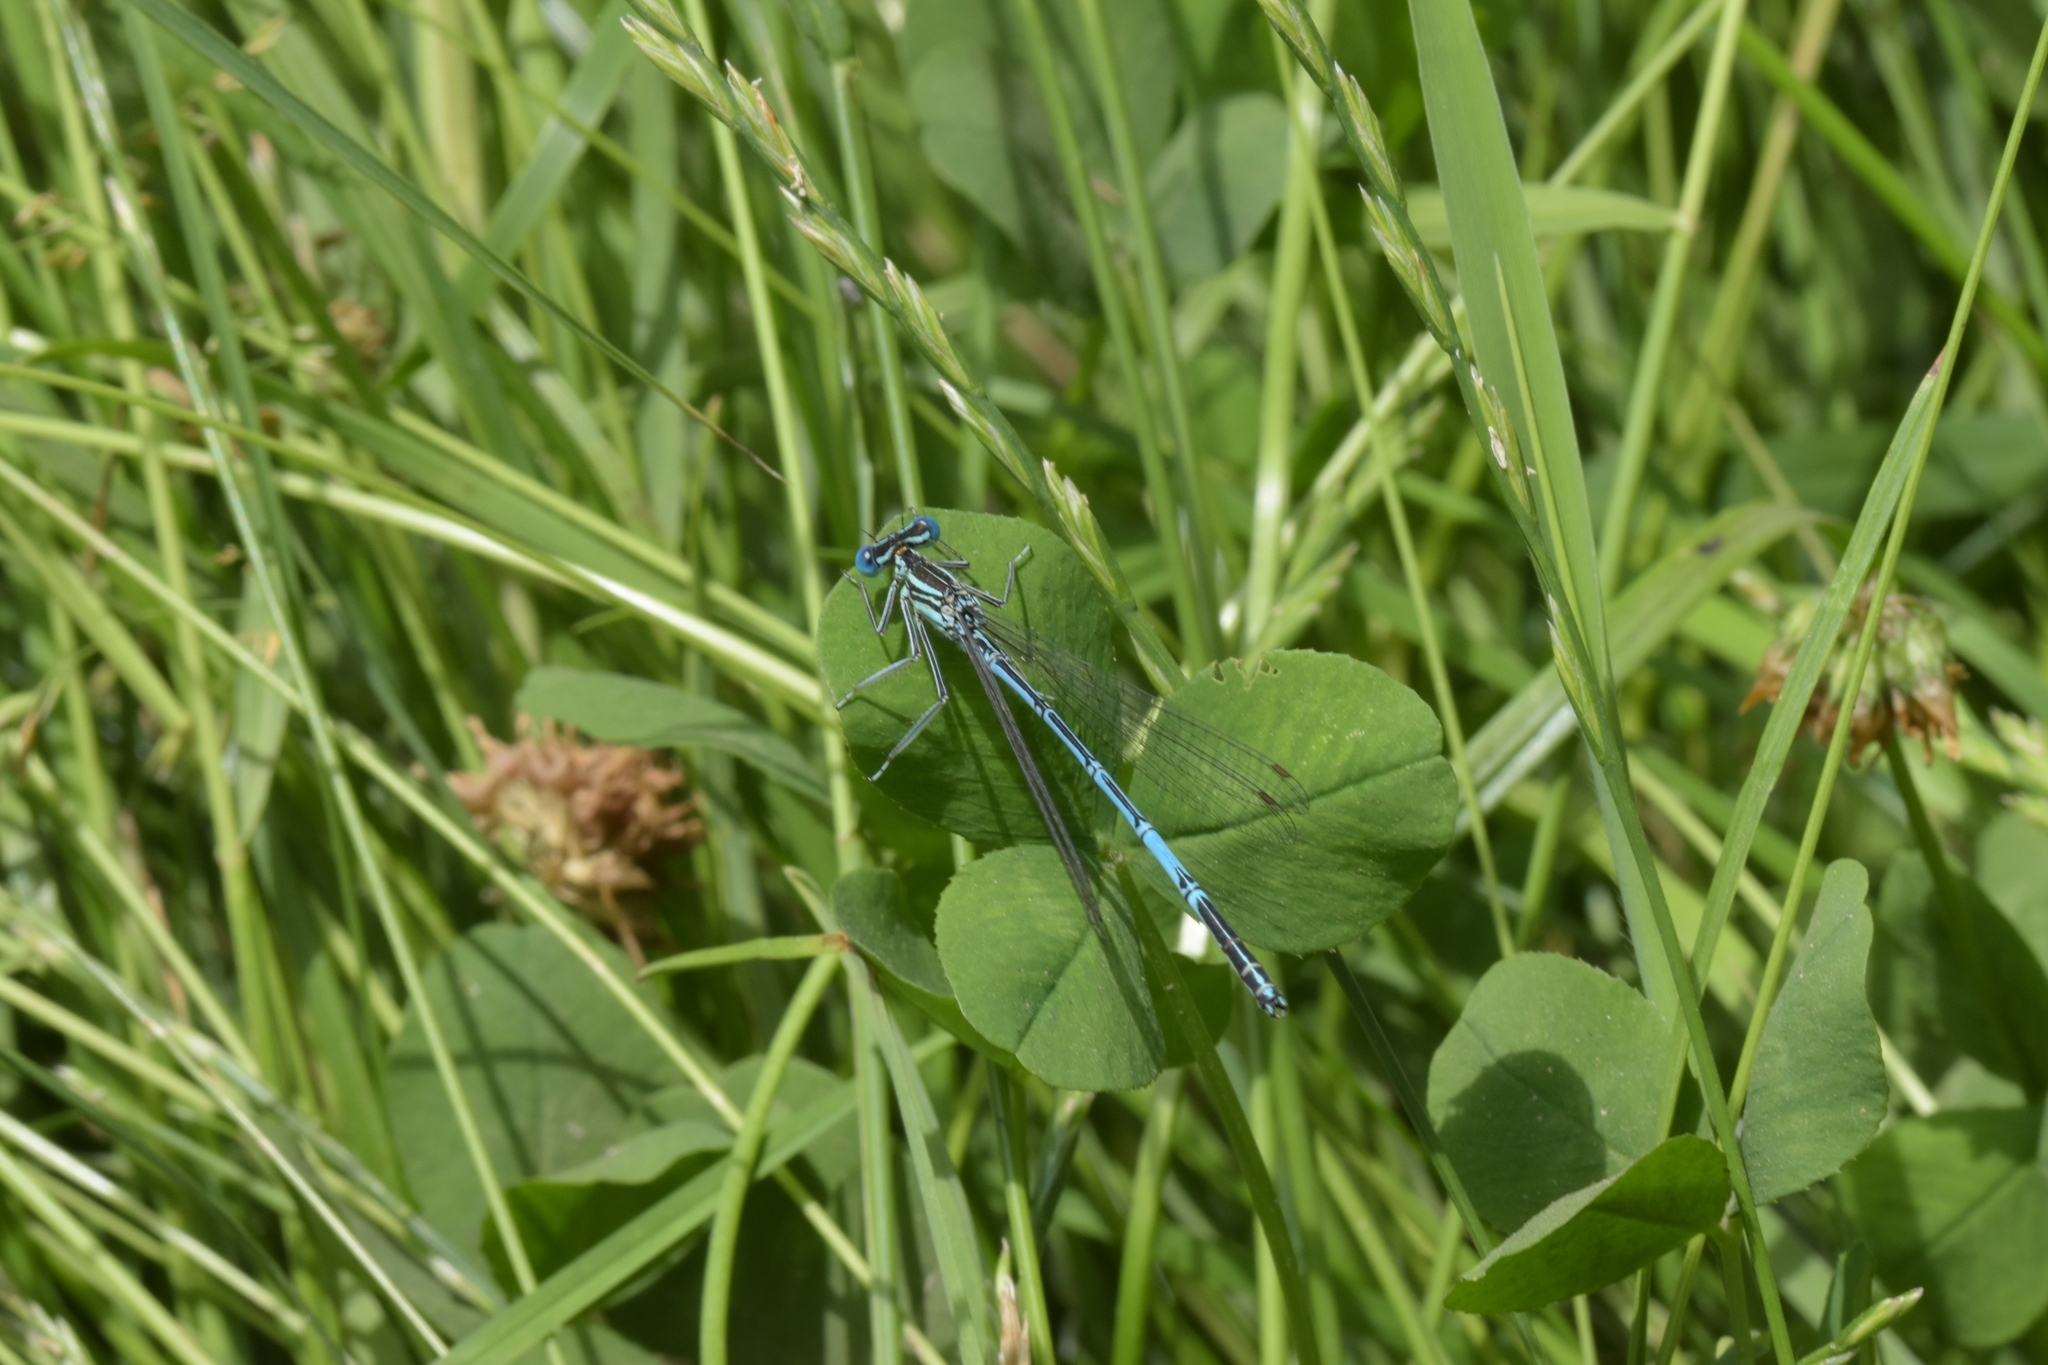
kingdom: Animalia
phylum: Arthropoda
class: Insecta
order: Odonata
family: Platycnemididae
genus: Platycnemis
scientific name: Platycnemis pennipes
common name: White-legged damselfly
